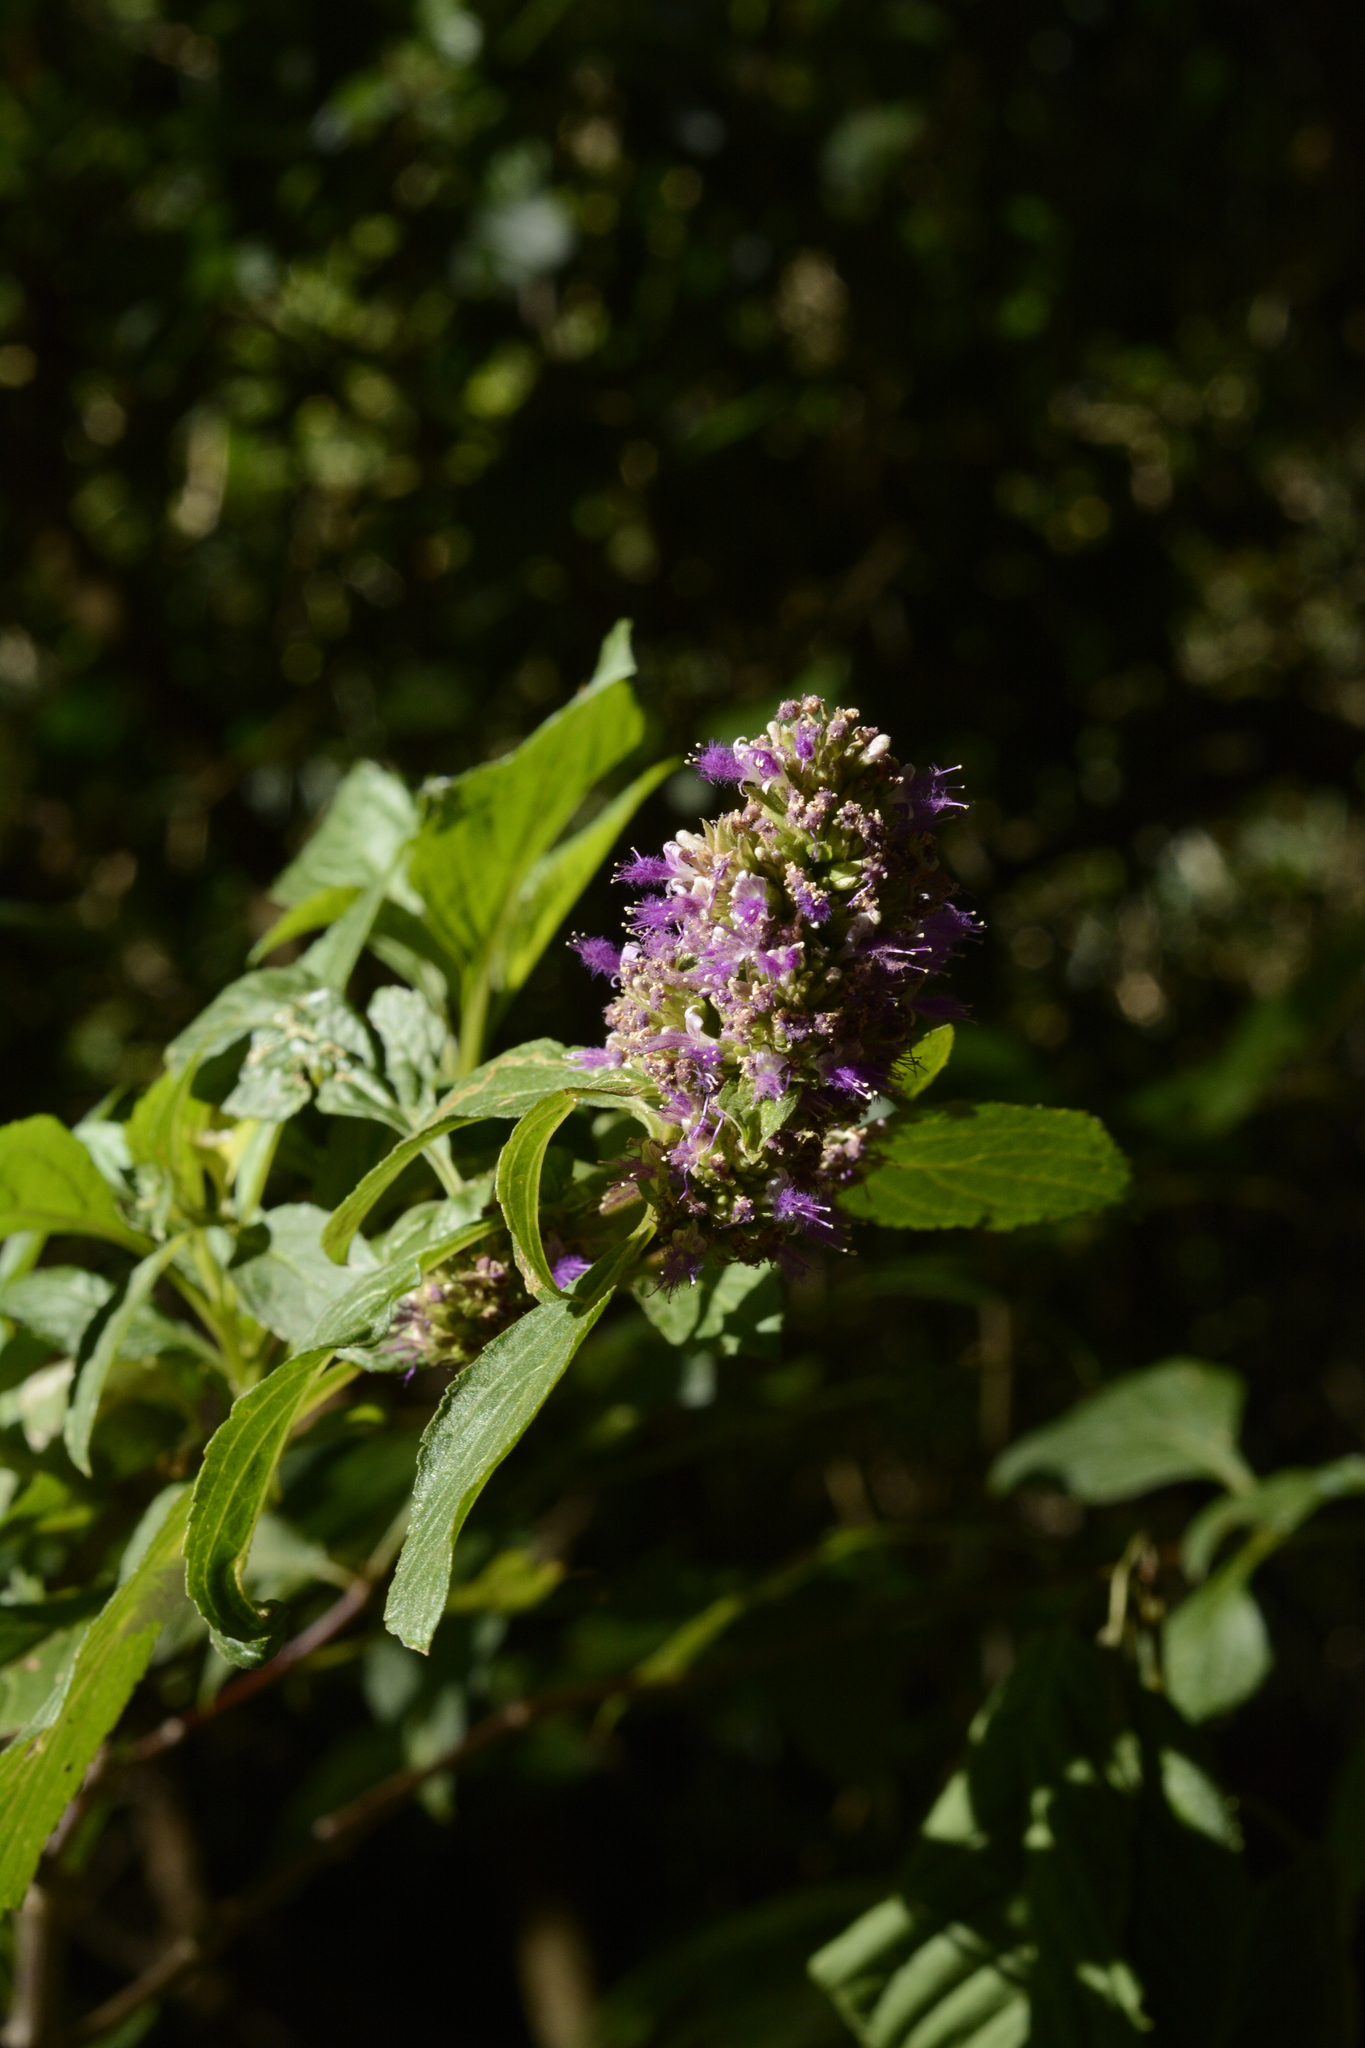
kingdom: Plantae
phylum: Tracheophyta
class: Magnoliopsida
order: Lamiales
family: Lamiaceae
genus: Pogostemon
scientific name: Pogostemon benghalensis
